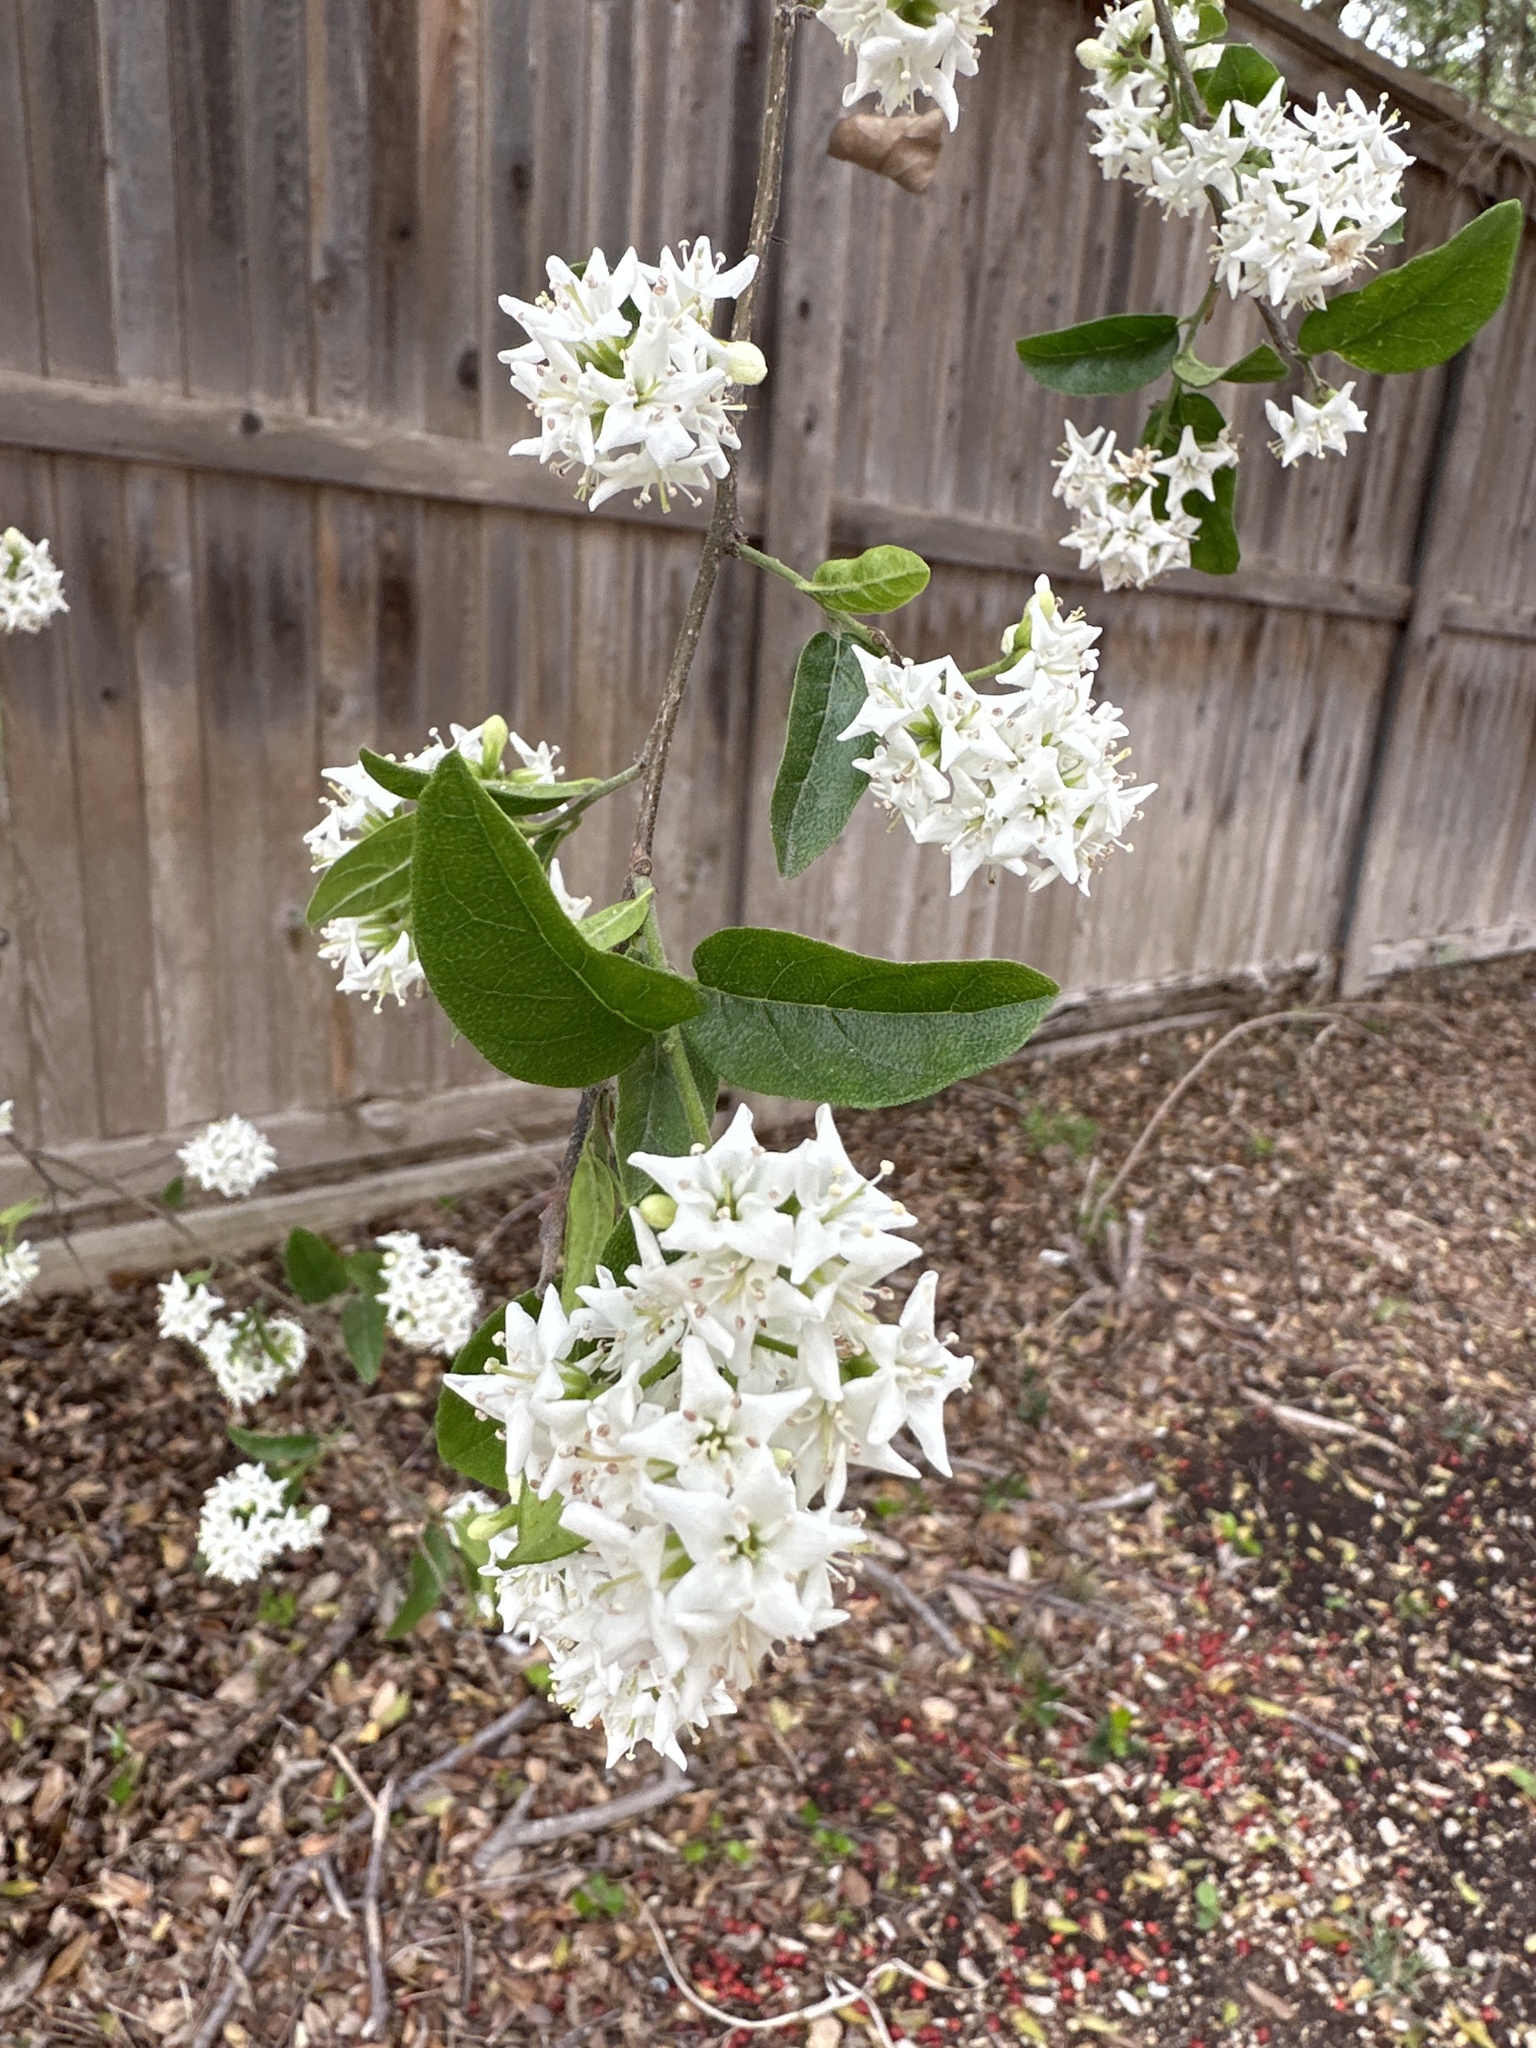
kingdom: Plantae
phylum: Tracheophyta
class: Magnoliopsida
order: Boraginales
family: Ehretiaceae
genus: Ehretia
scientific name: Ehretia anacua
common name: Sugarberry
